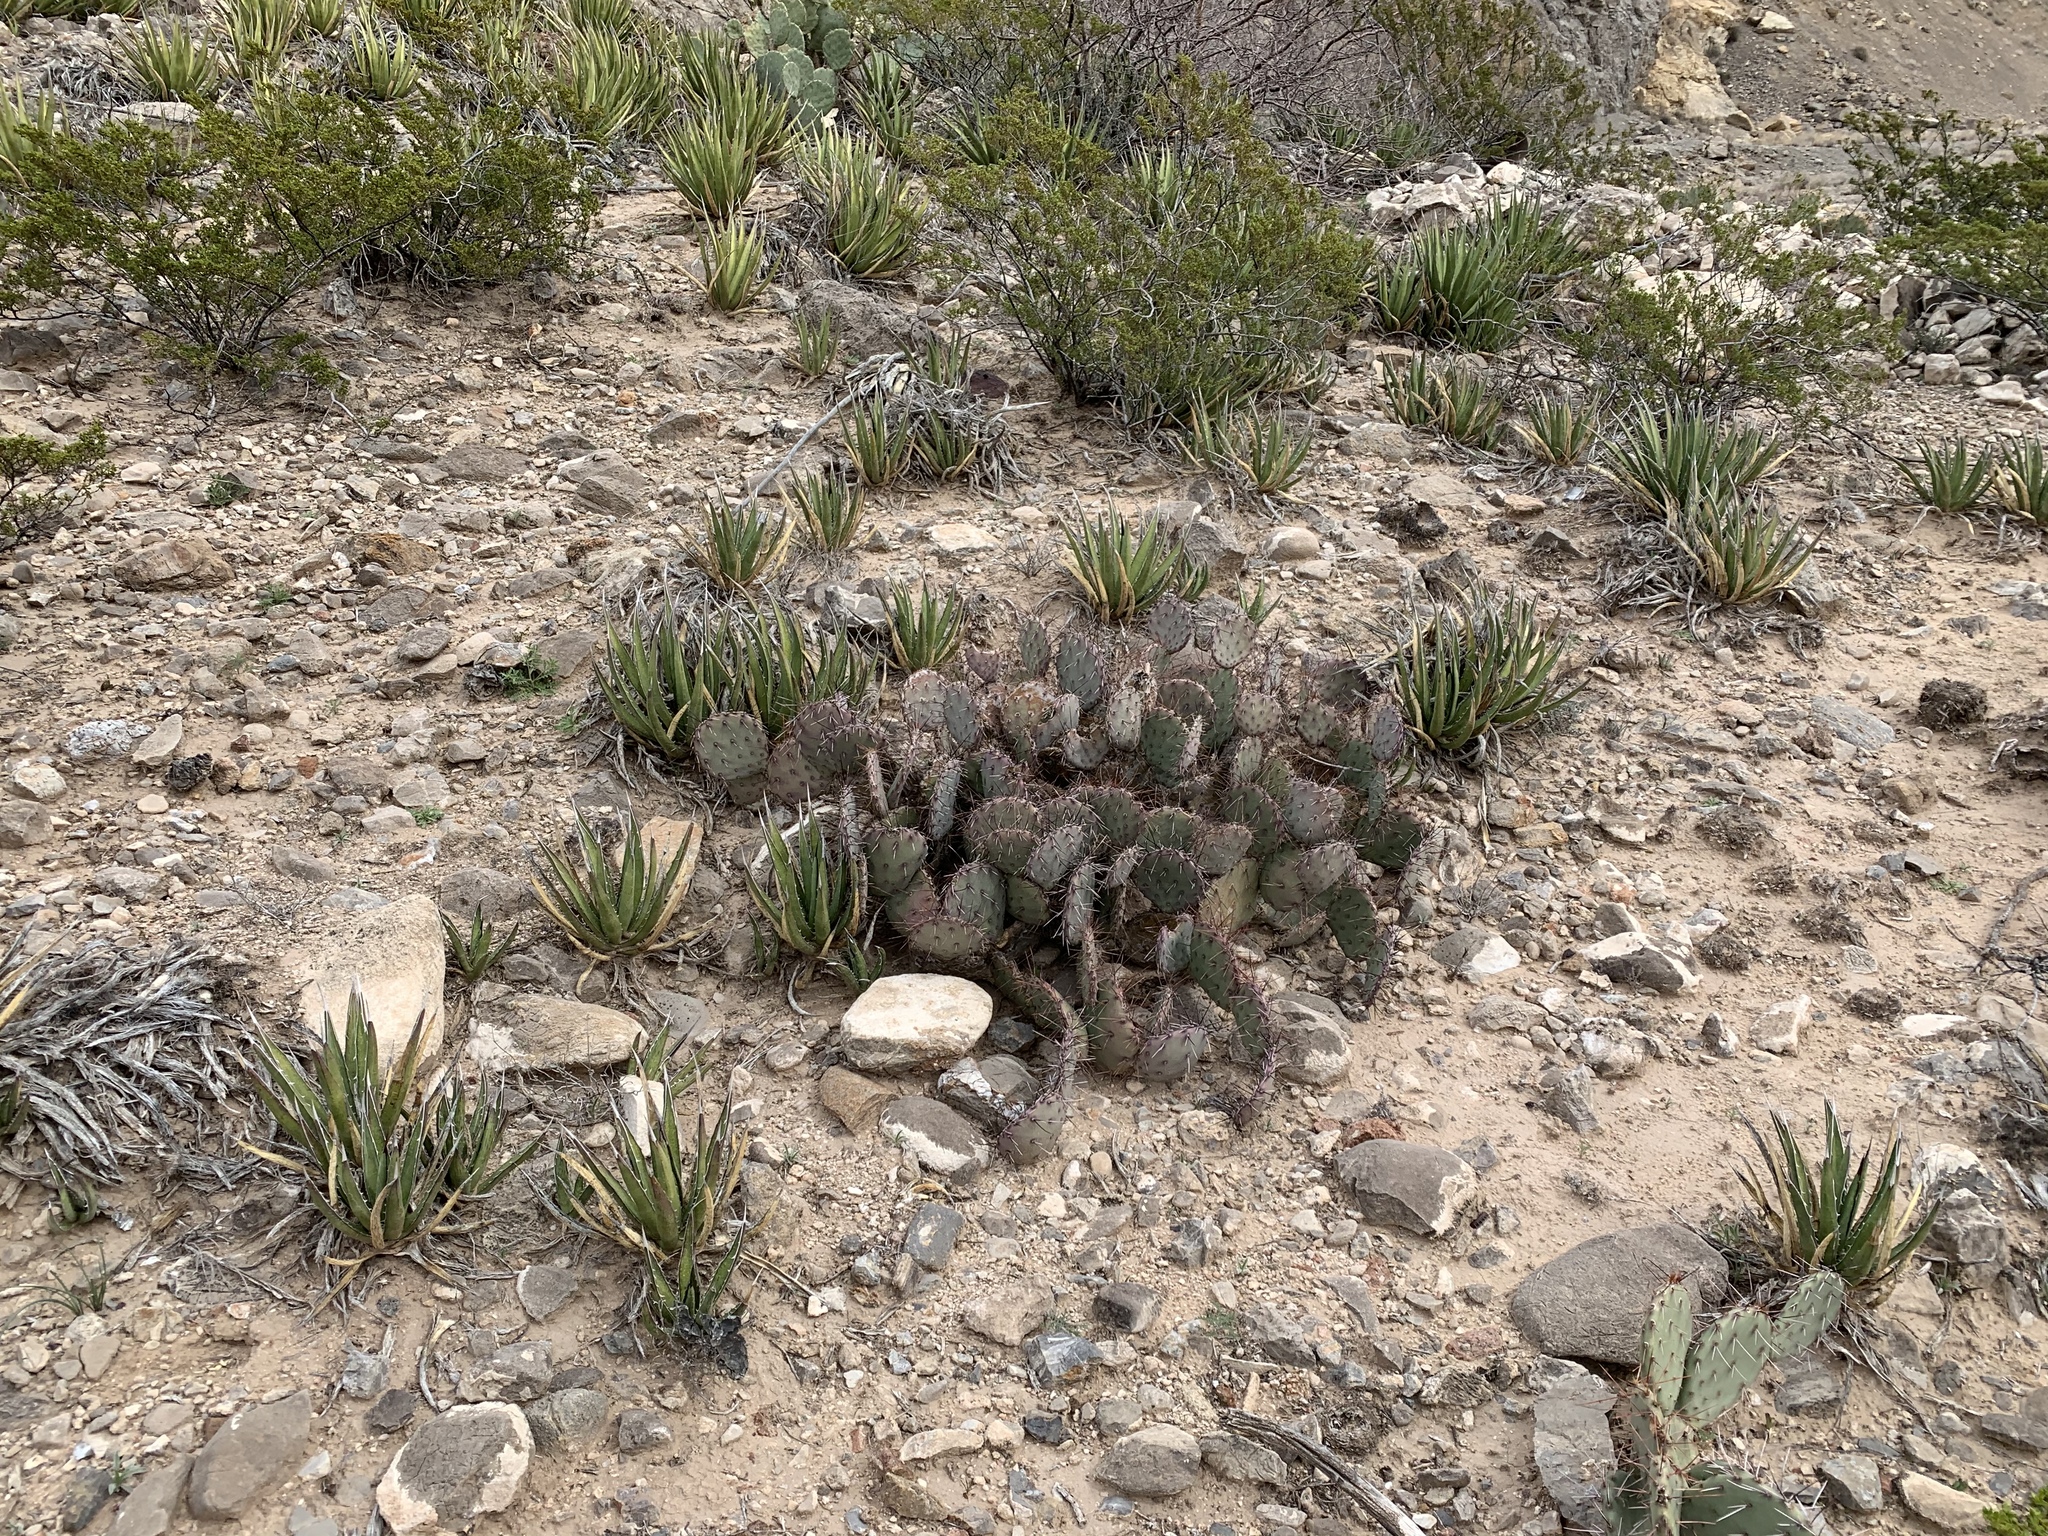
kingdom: Plantae
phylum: Tracheophyta
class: Magnoliopsida
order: Caryophyllales
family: Cactaceae
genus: Opuntia
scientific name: Opuntia phaeacantha
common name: New mexico prickly-pear
